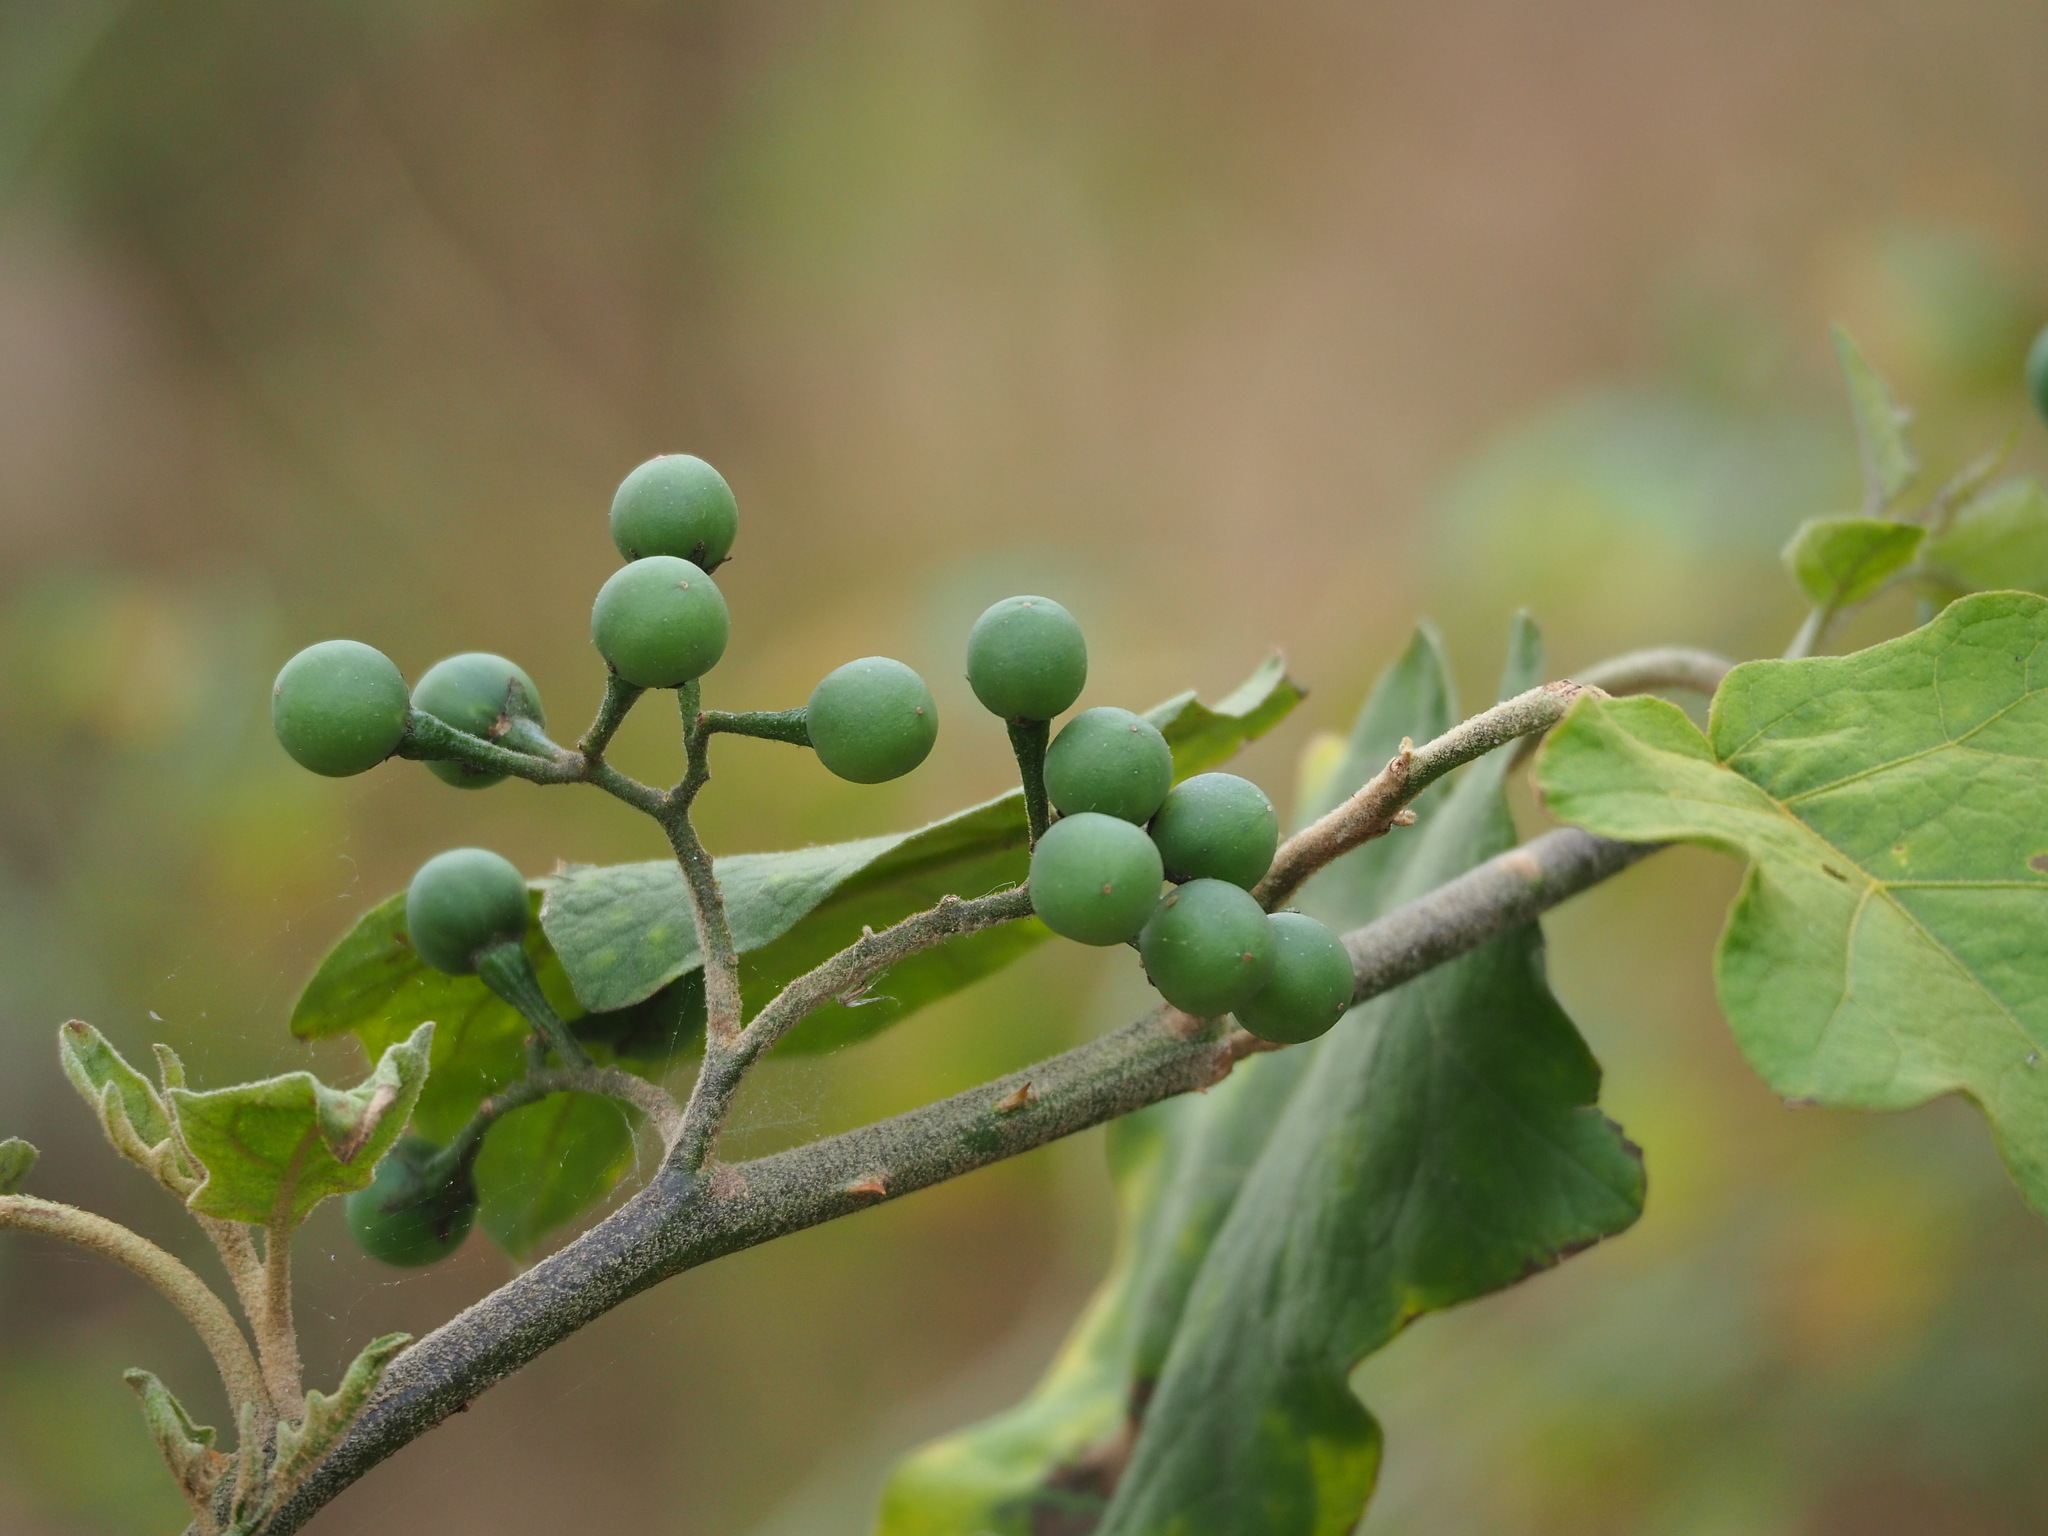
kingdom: Plantae
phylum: Tracheophyta
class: Magnoliopsida
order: Solanales
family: Solanaceae
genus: Solanum
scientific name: Solanum torvum
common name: Turkey berry
